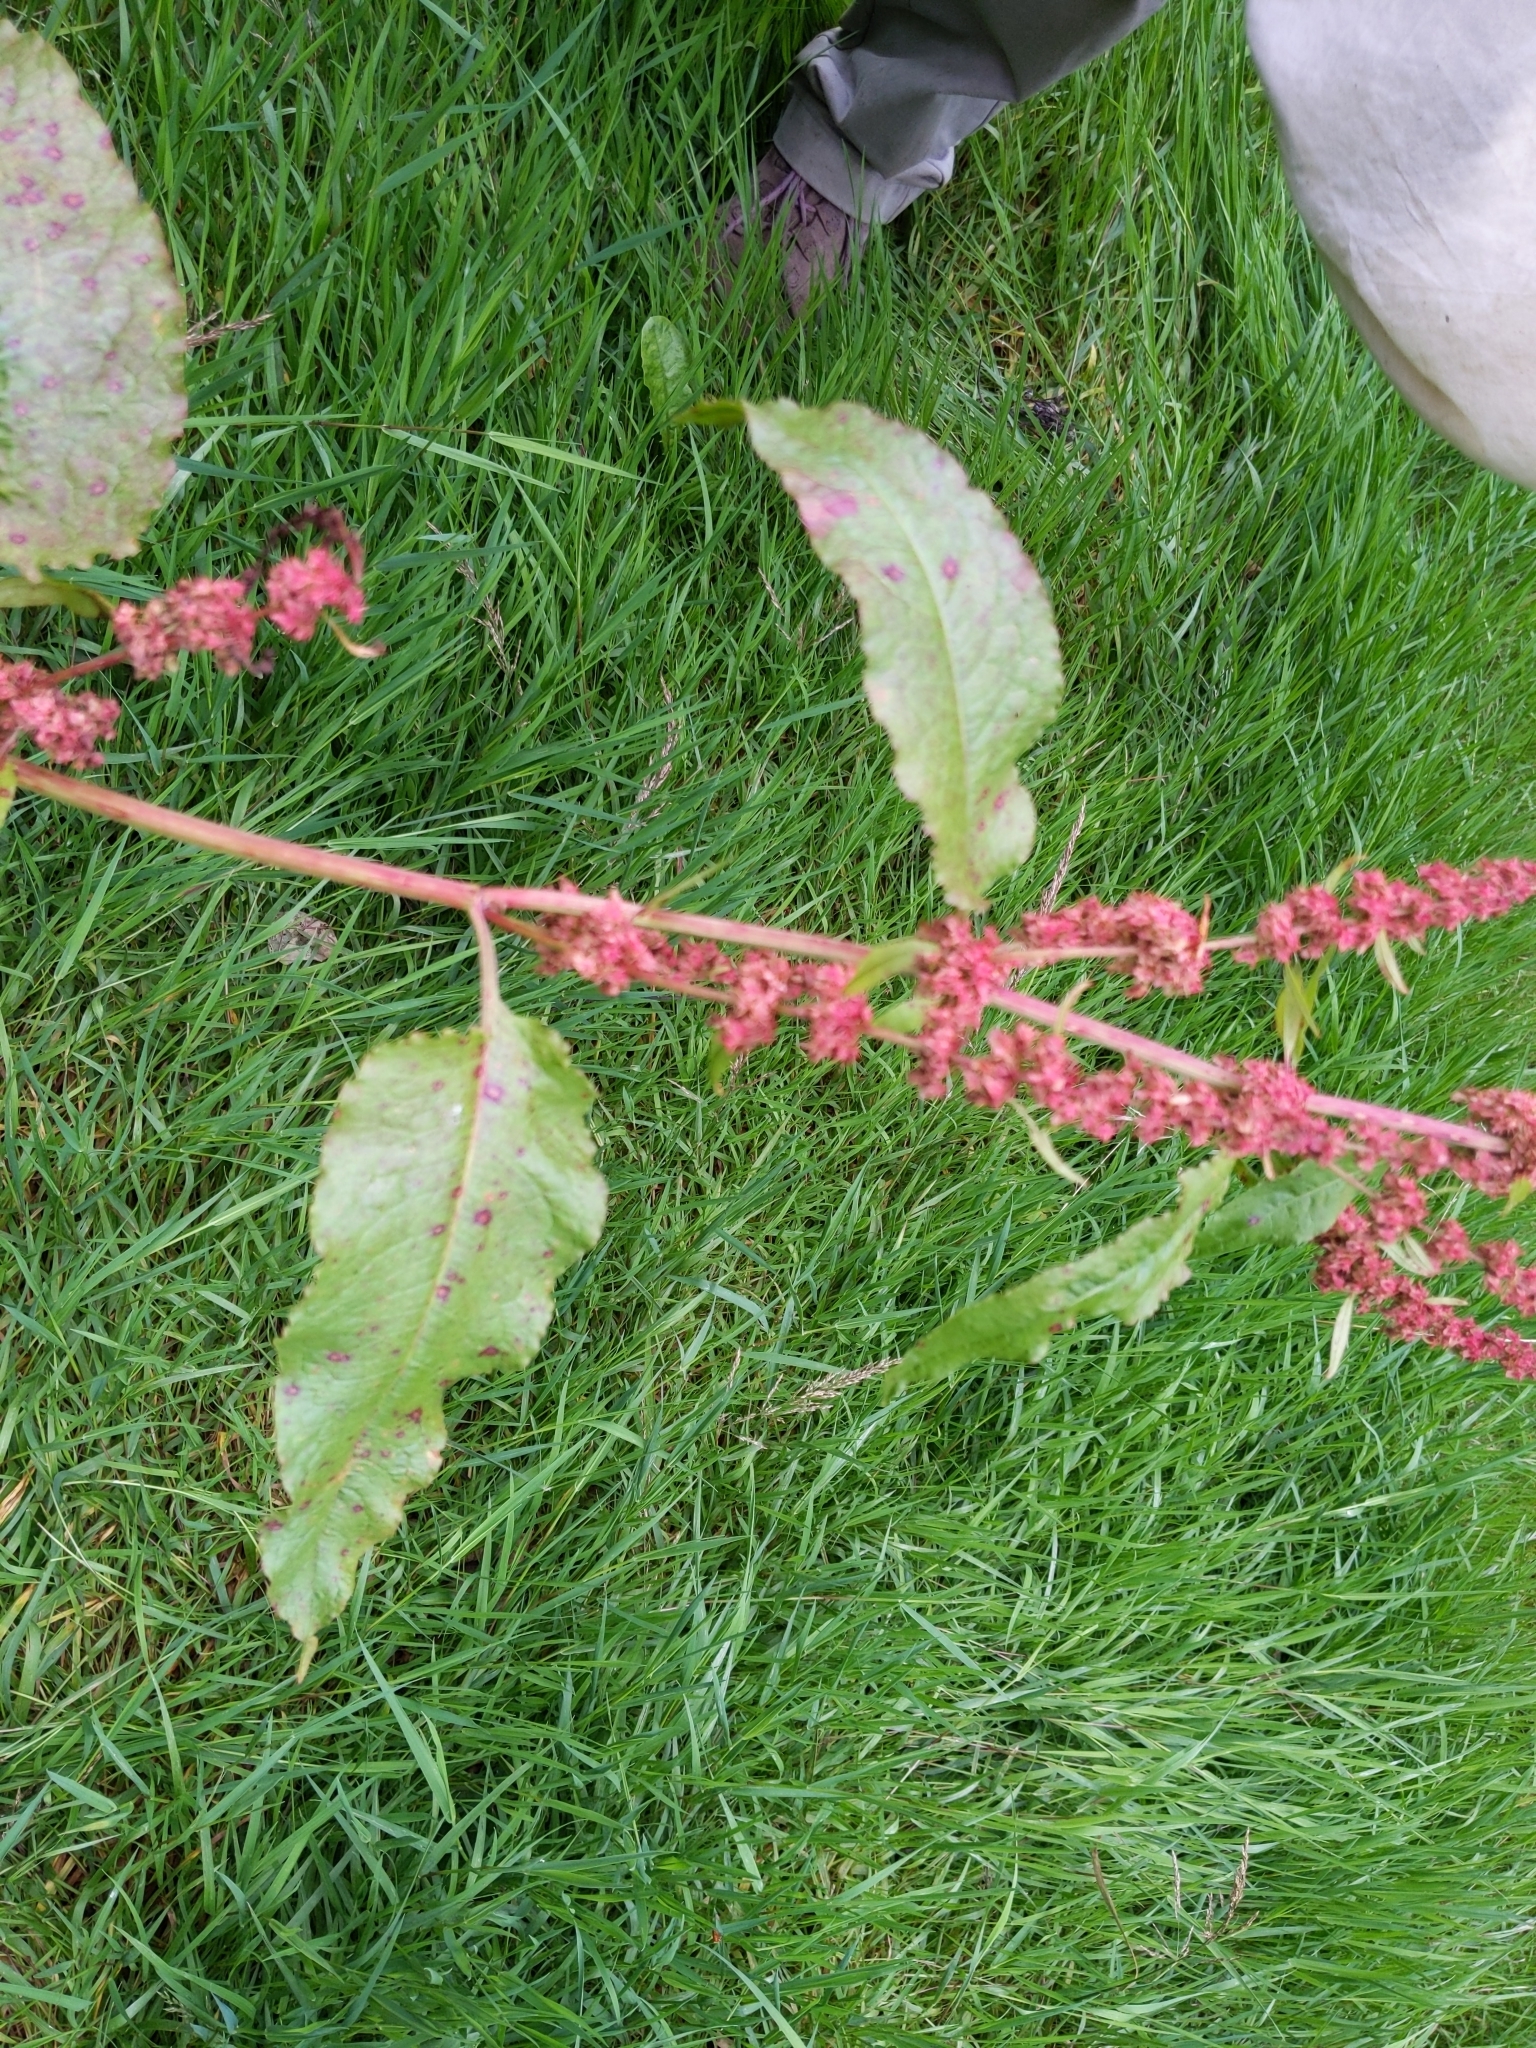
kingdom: Plantae
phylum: Tracheophyta
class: Magnoliopsida
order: Caryophyllales
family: Polygonaceae
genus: Rumex
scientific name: Rumex obtusifolius
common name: Bitter dock
